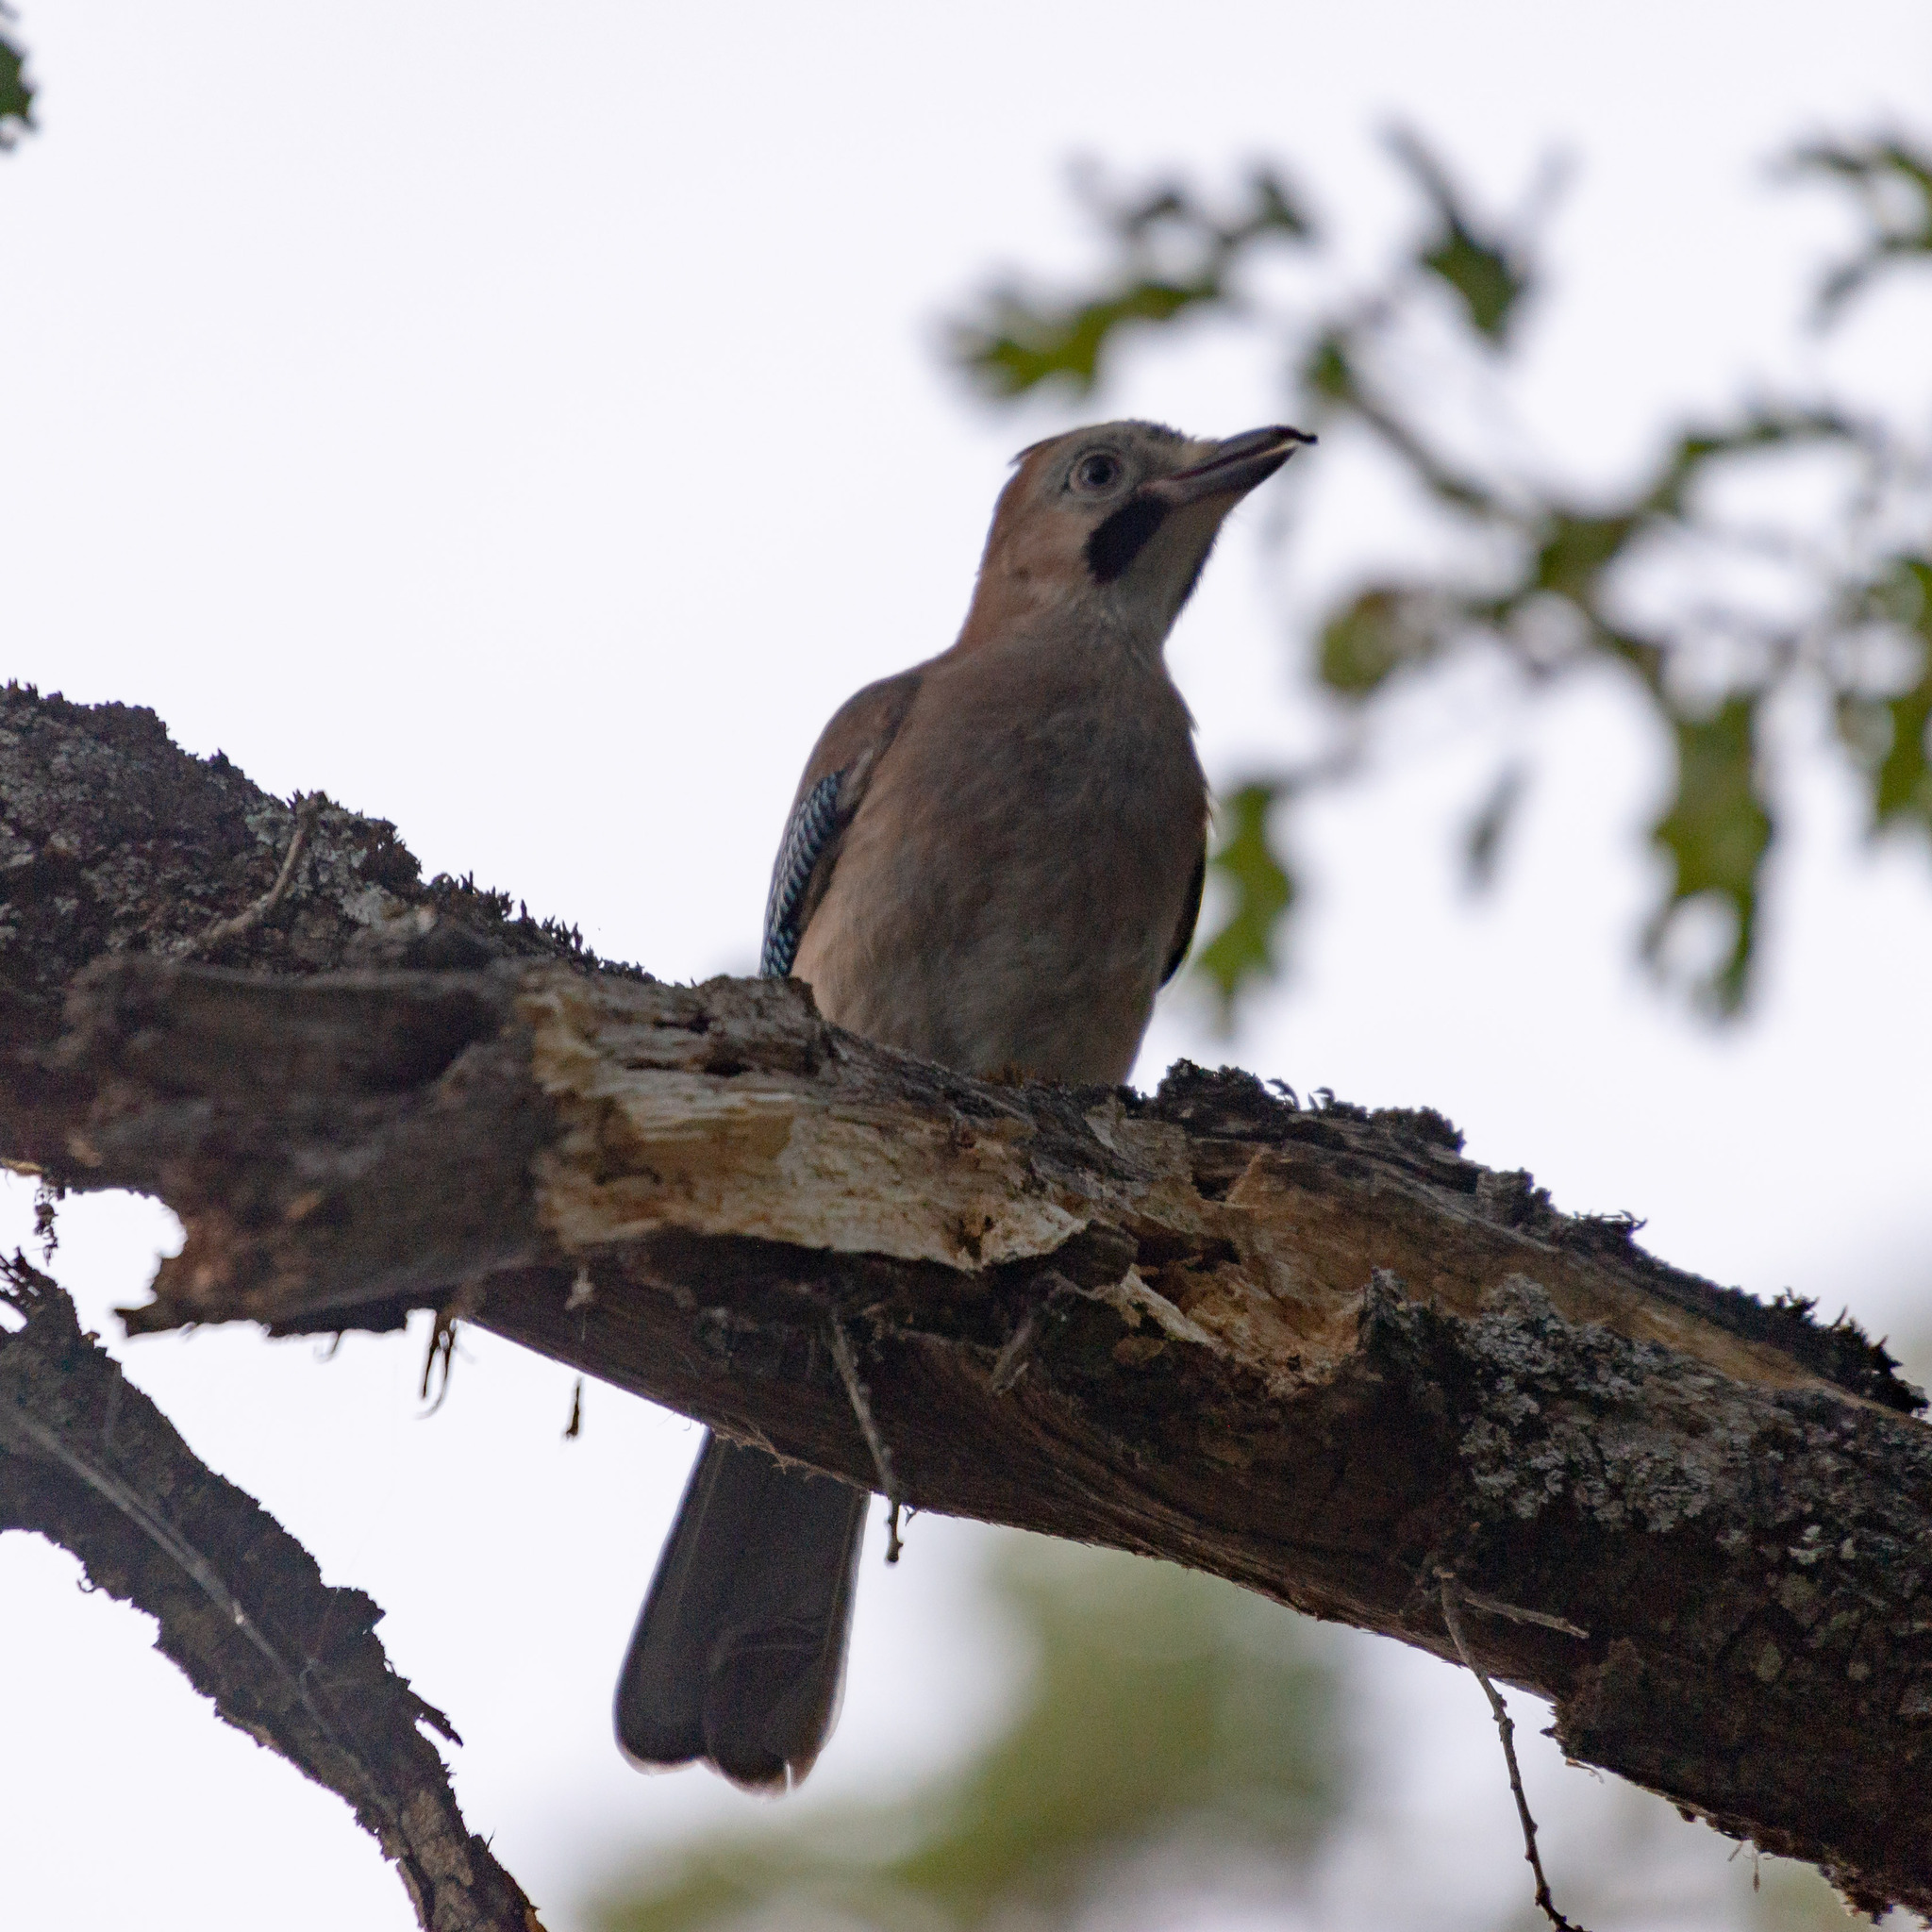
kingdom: Animalia
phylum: Chordata
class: Aves
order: Passeriformes
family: Corvidae
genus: Garrulus
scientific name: Garrulus glandarius
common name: Eurasian jay
